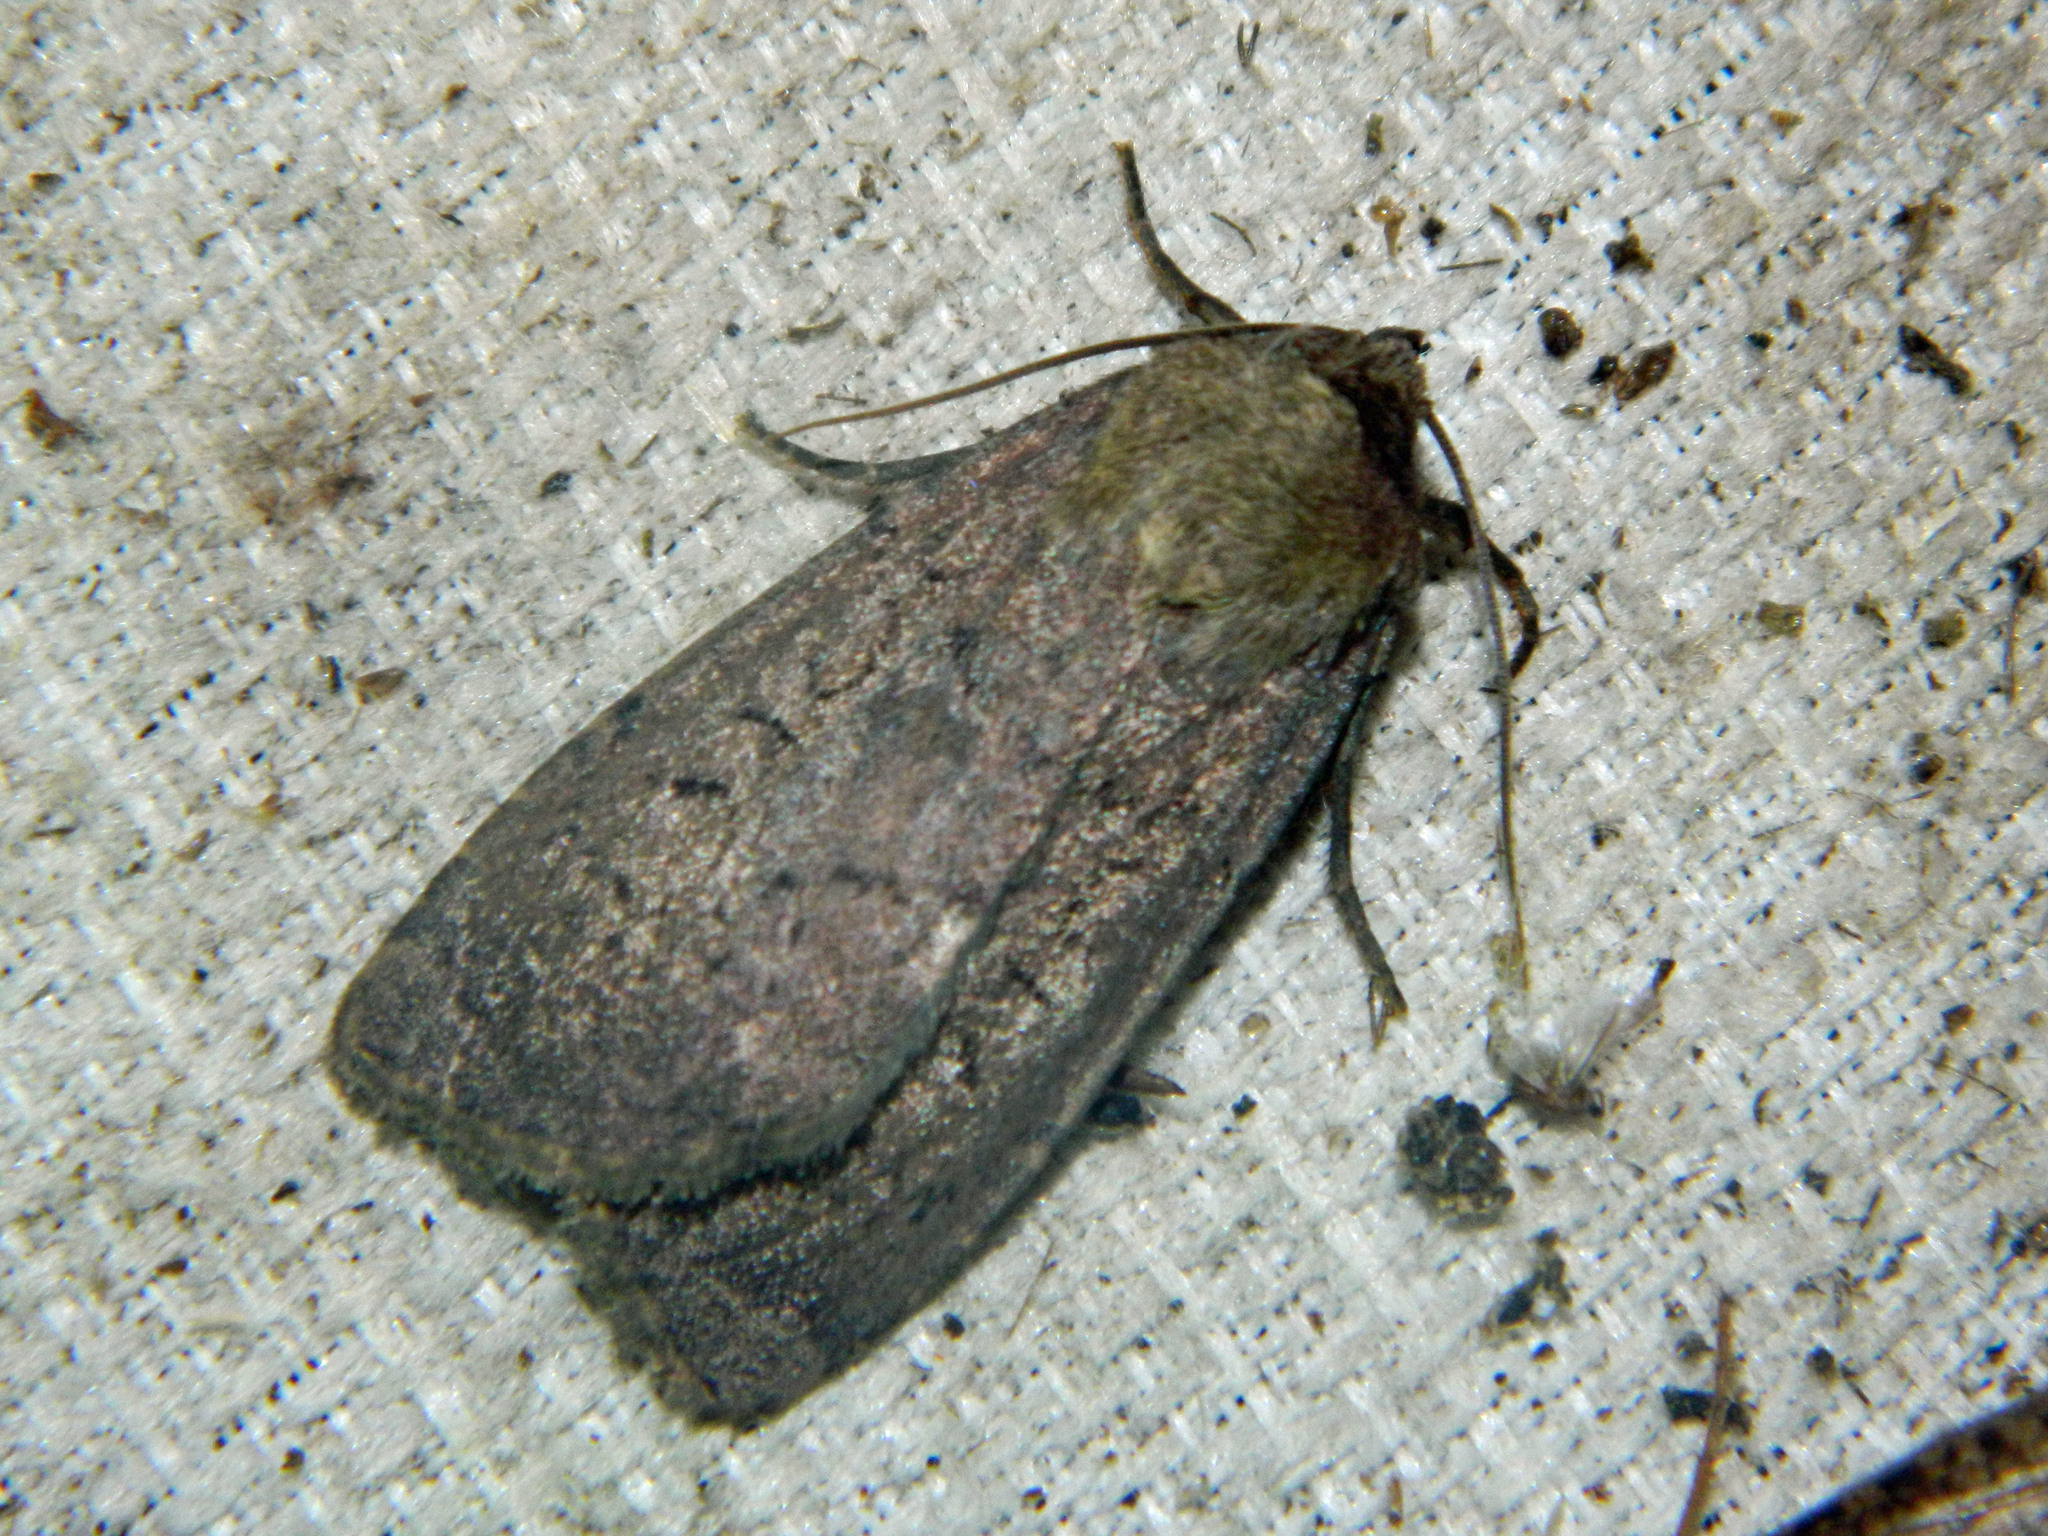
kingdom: Animalia
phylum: Arthropoda
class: Insecta
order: Lepidoptera
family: Noctuidae
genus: Graphiphora
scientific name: Graphiphora augur
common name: Double dart
